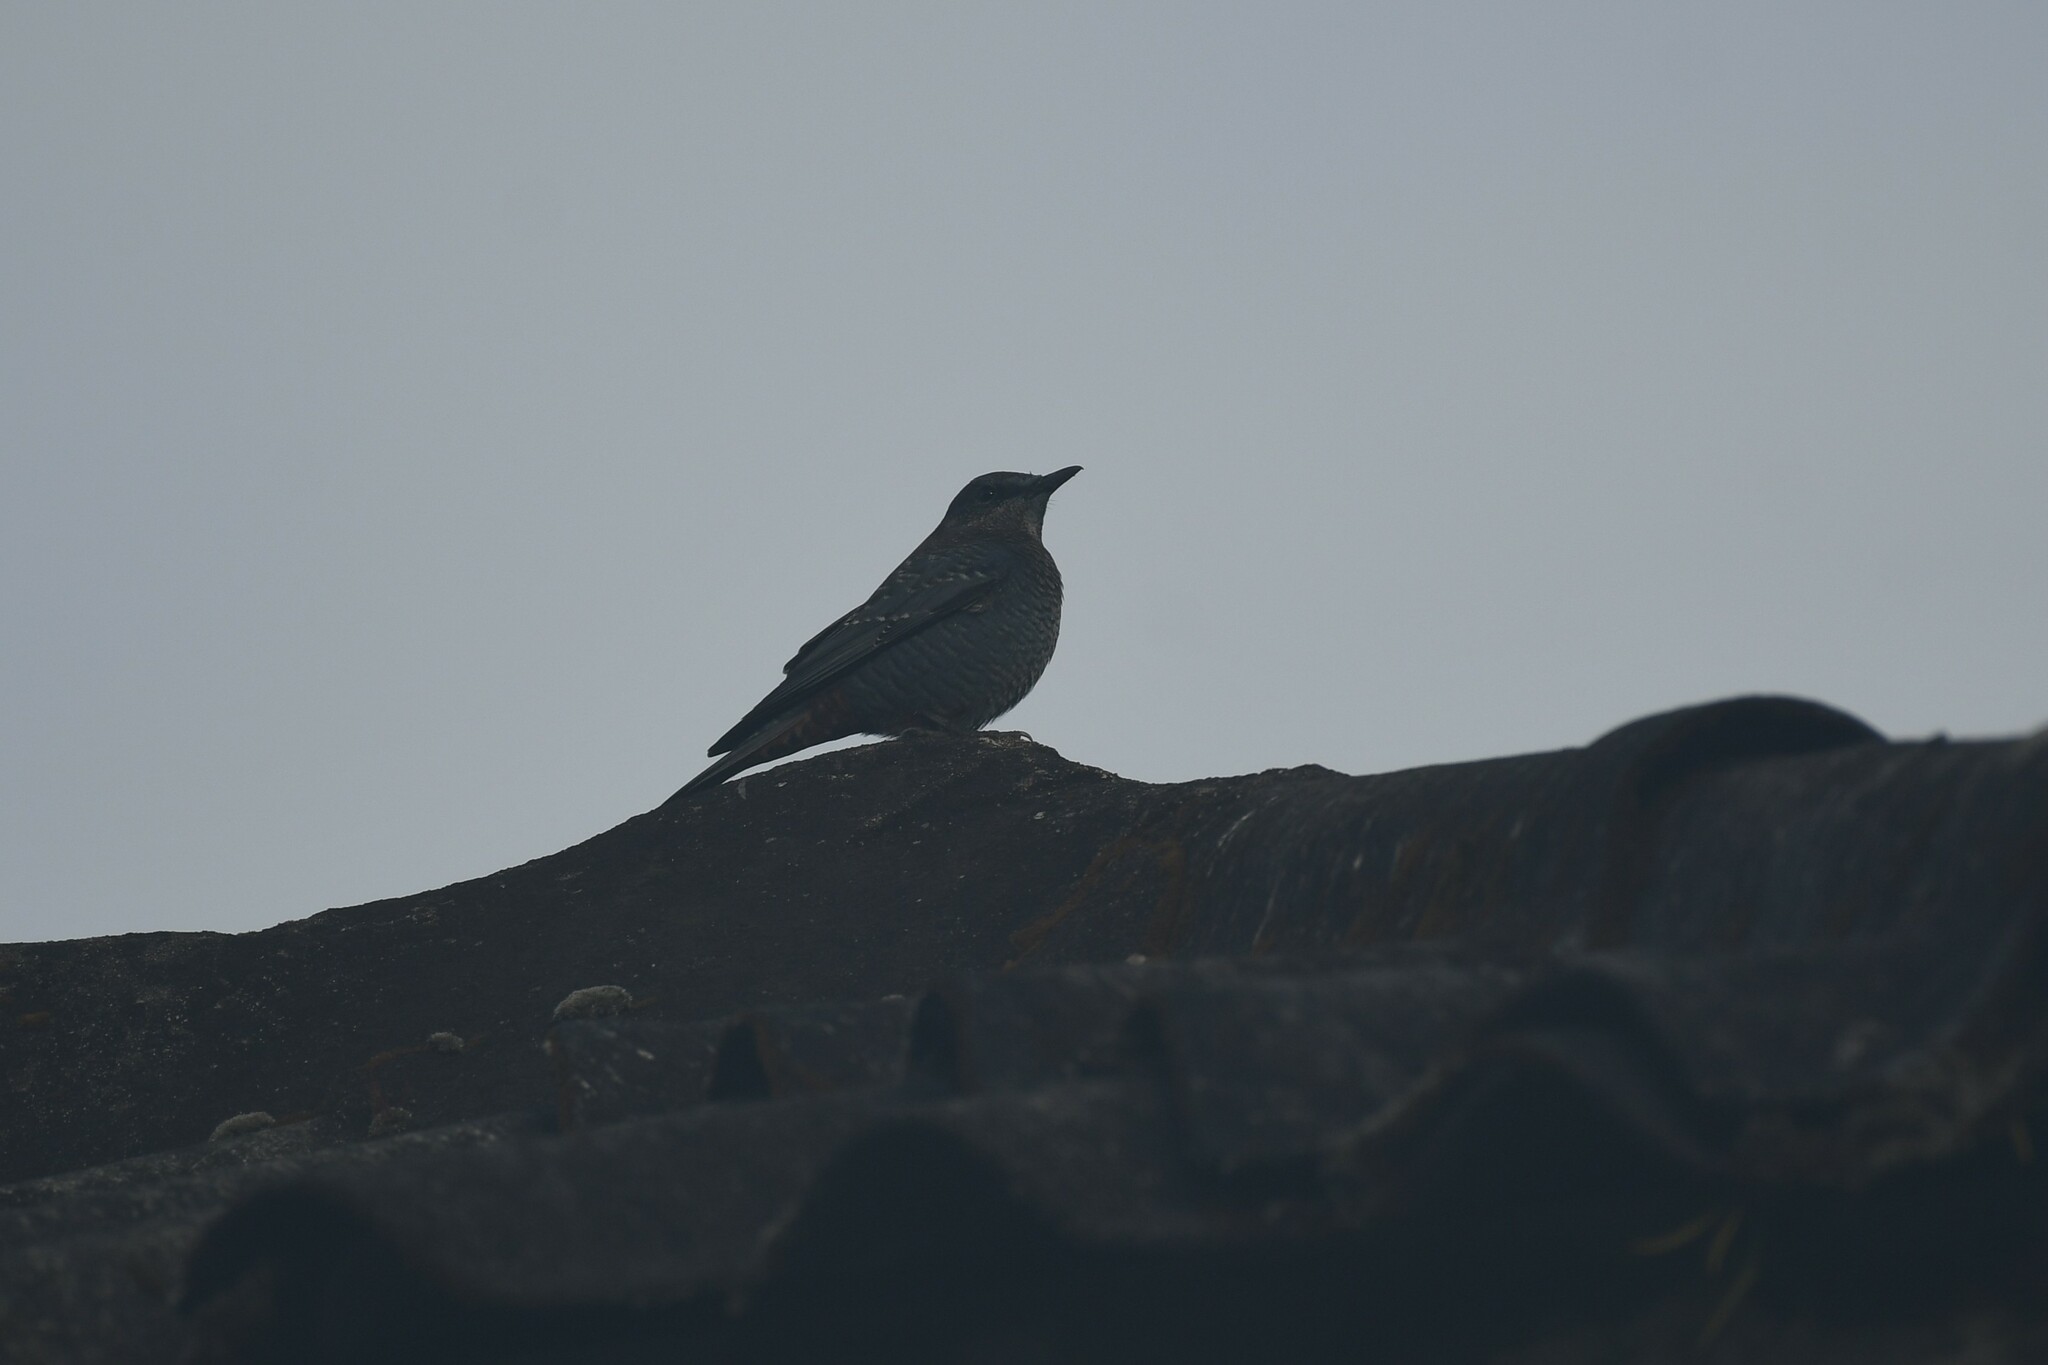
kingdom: Animalia
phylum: Chordata
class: Aves
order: Passeriformes
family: Muscicapidae
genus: Monticola
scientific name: Monticola solitarius
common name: Blue rock thrush
